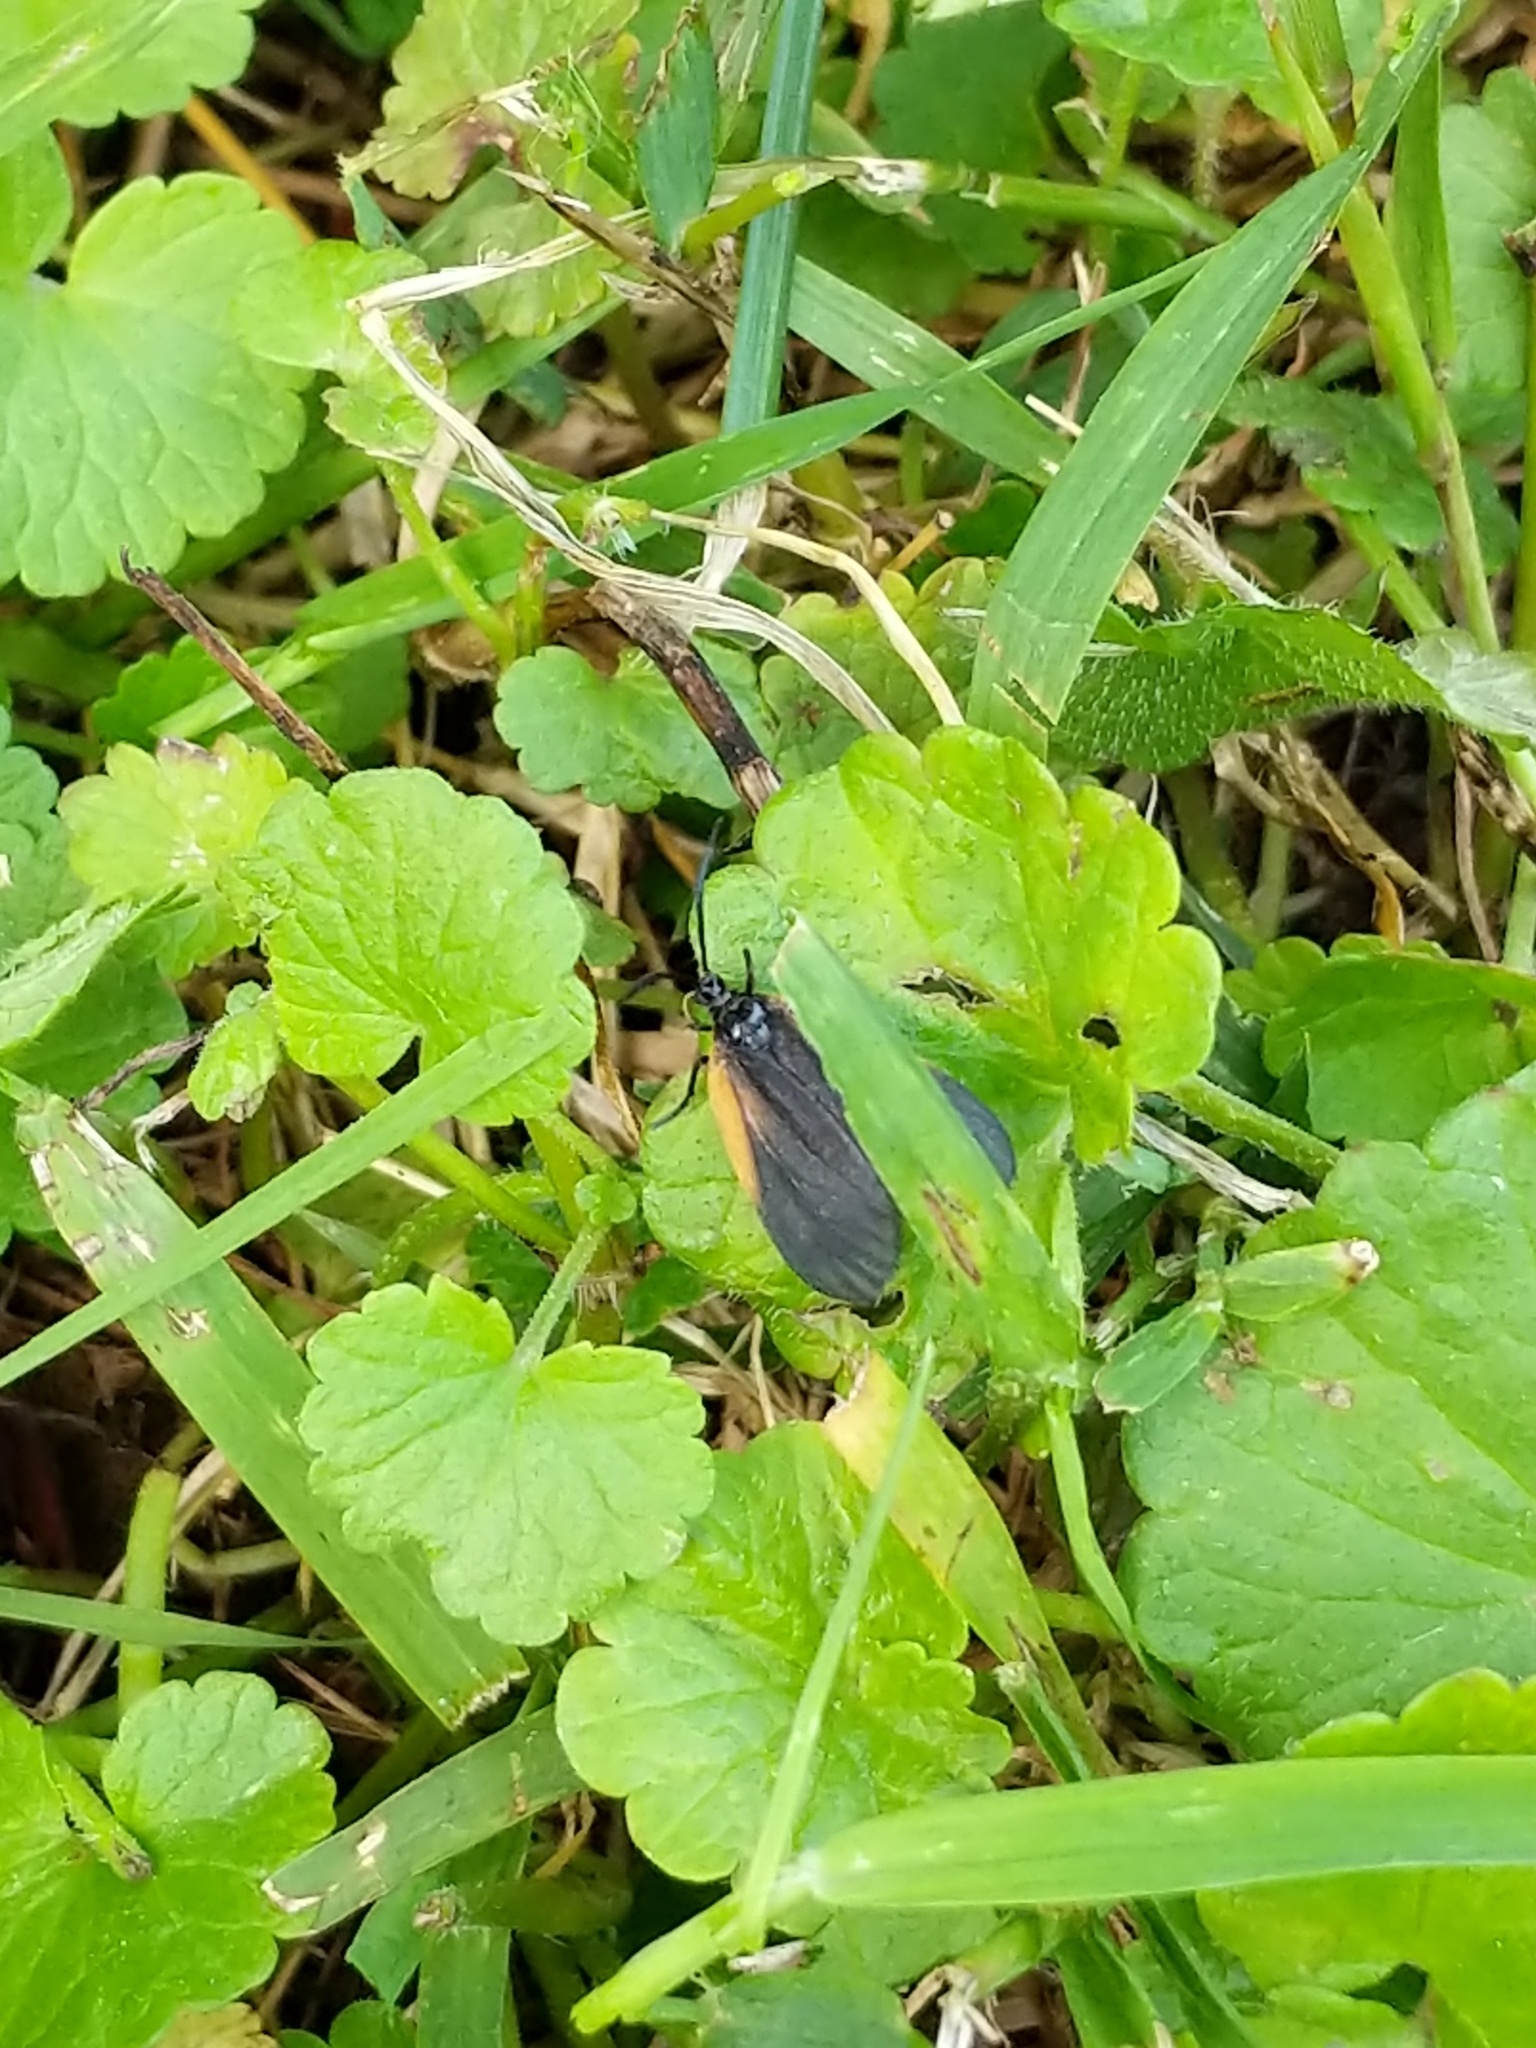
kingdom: Animalia
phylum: Arthropoda
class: Insecta
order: Lepidoptera
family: Zygaenidae
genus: Malthaca
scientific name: Malthaca dimidiata
